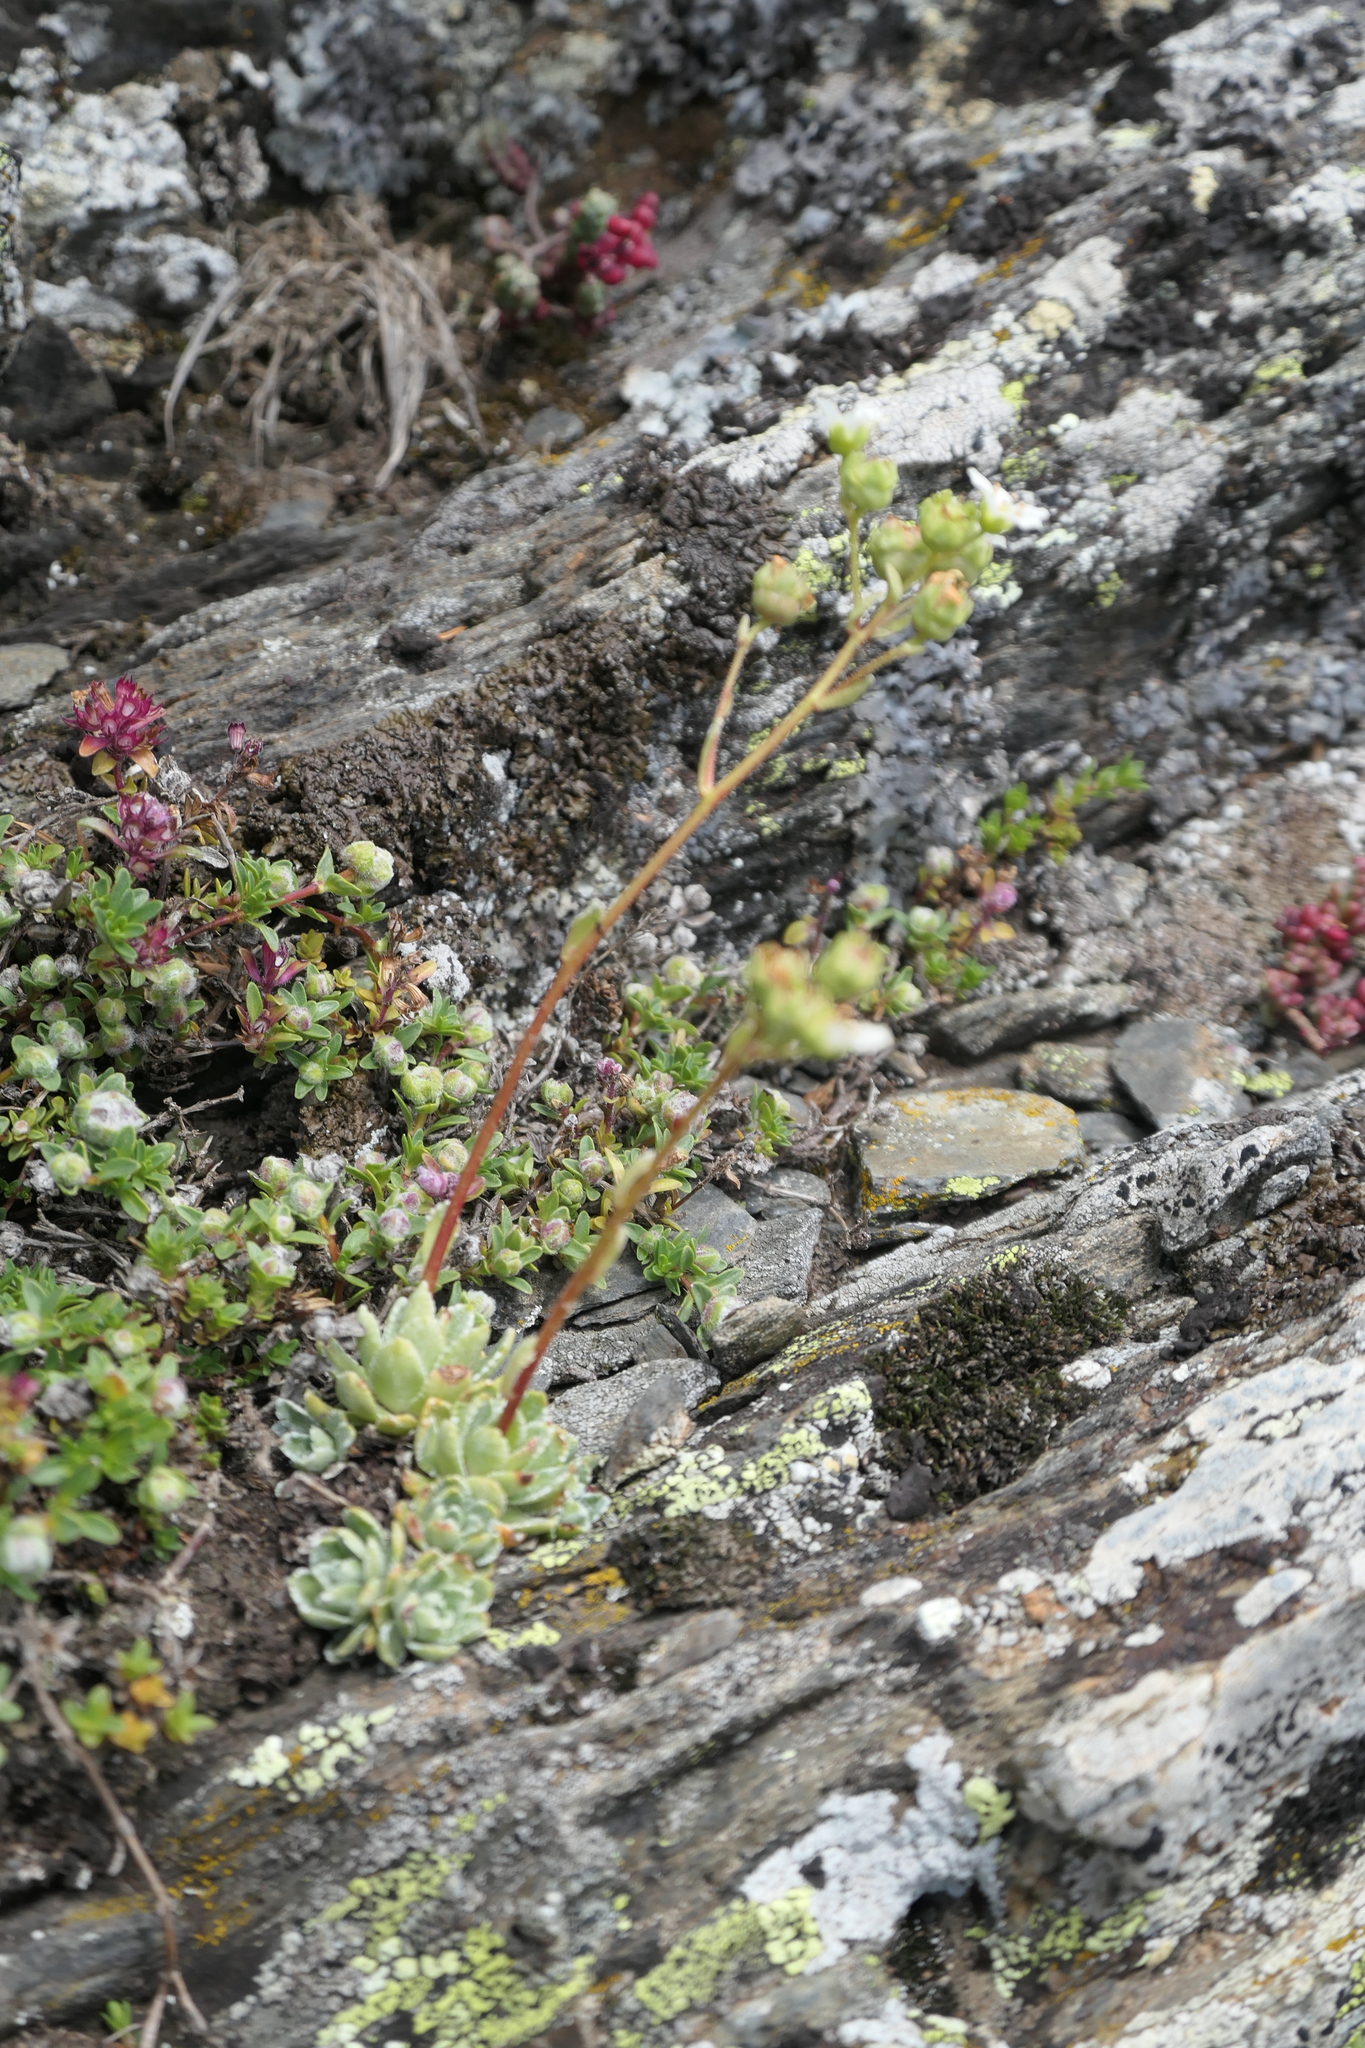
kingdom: Plantae
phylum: Tracheophyta
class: Magnoliopsida
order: Saxifragales
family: Saxifragaceae
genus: Saxifraga
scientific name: Saxifraga paniculata
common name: Livelong saxifrage
